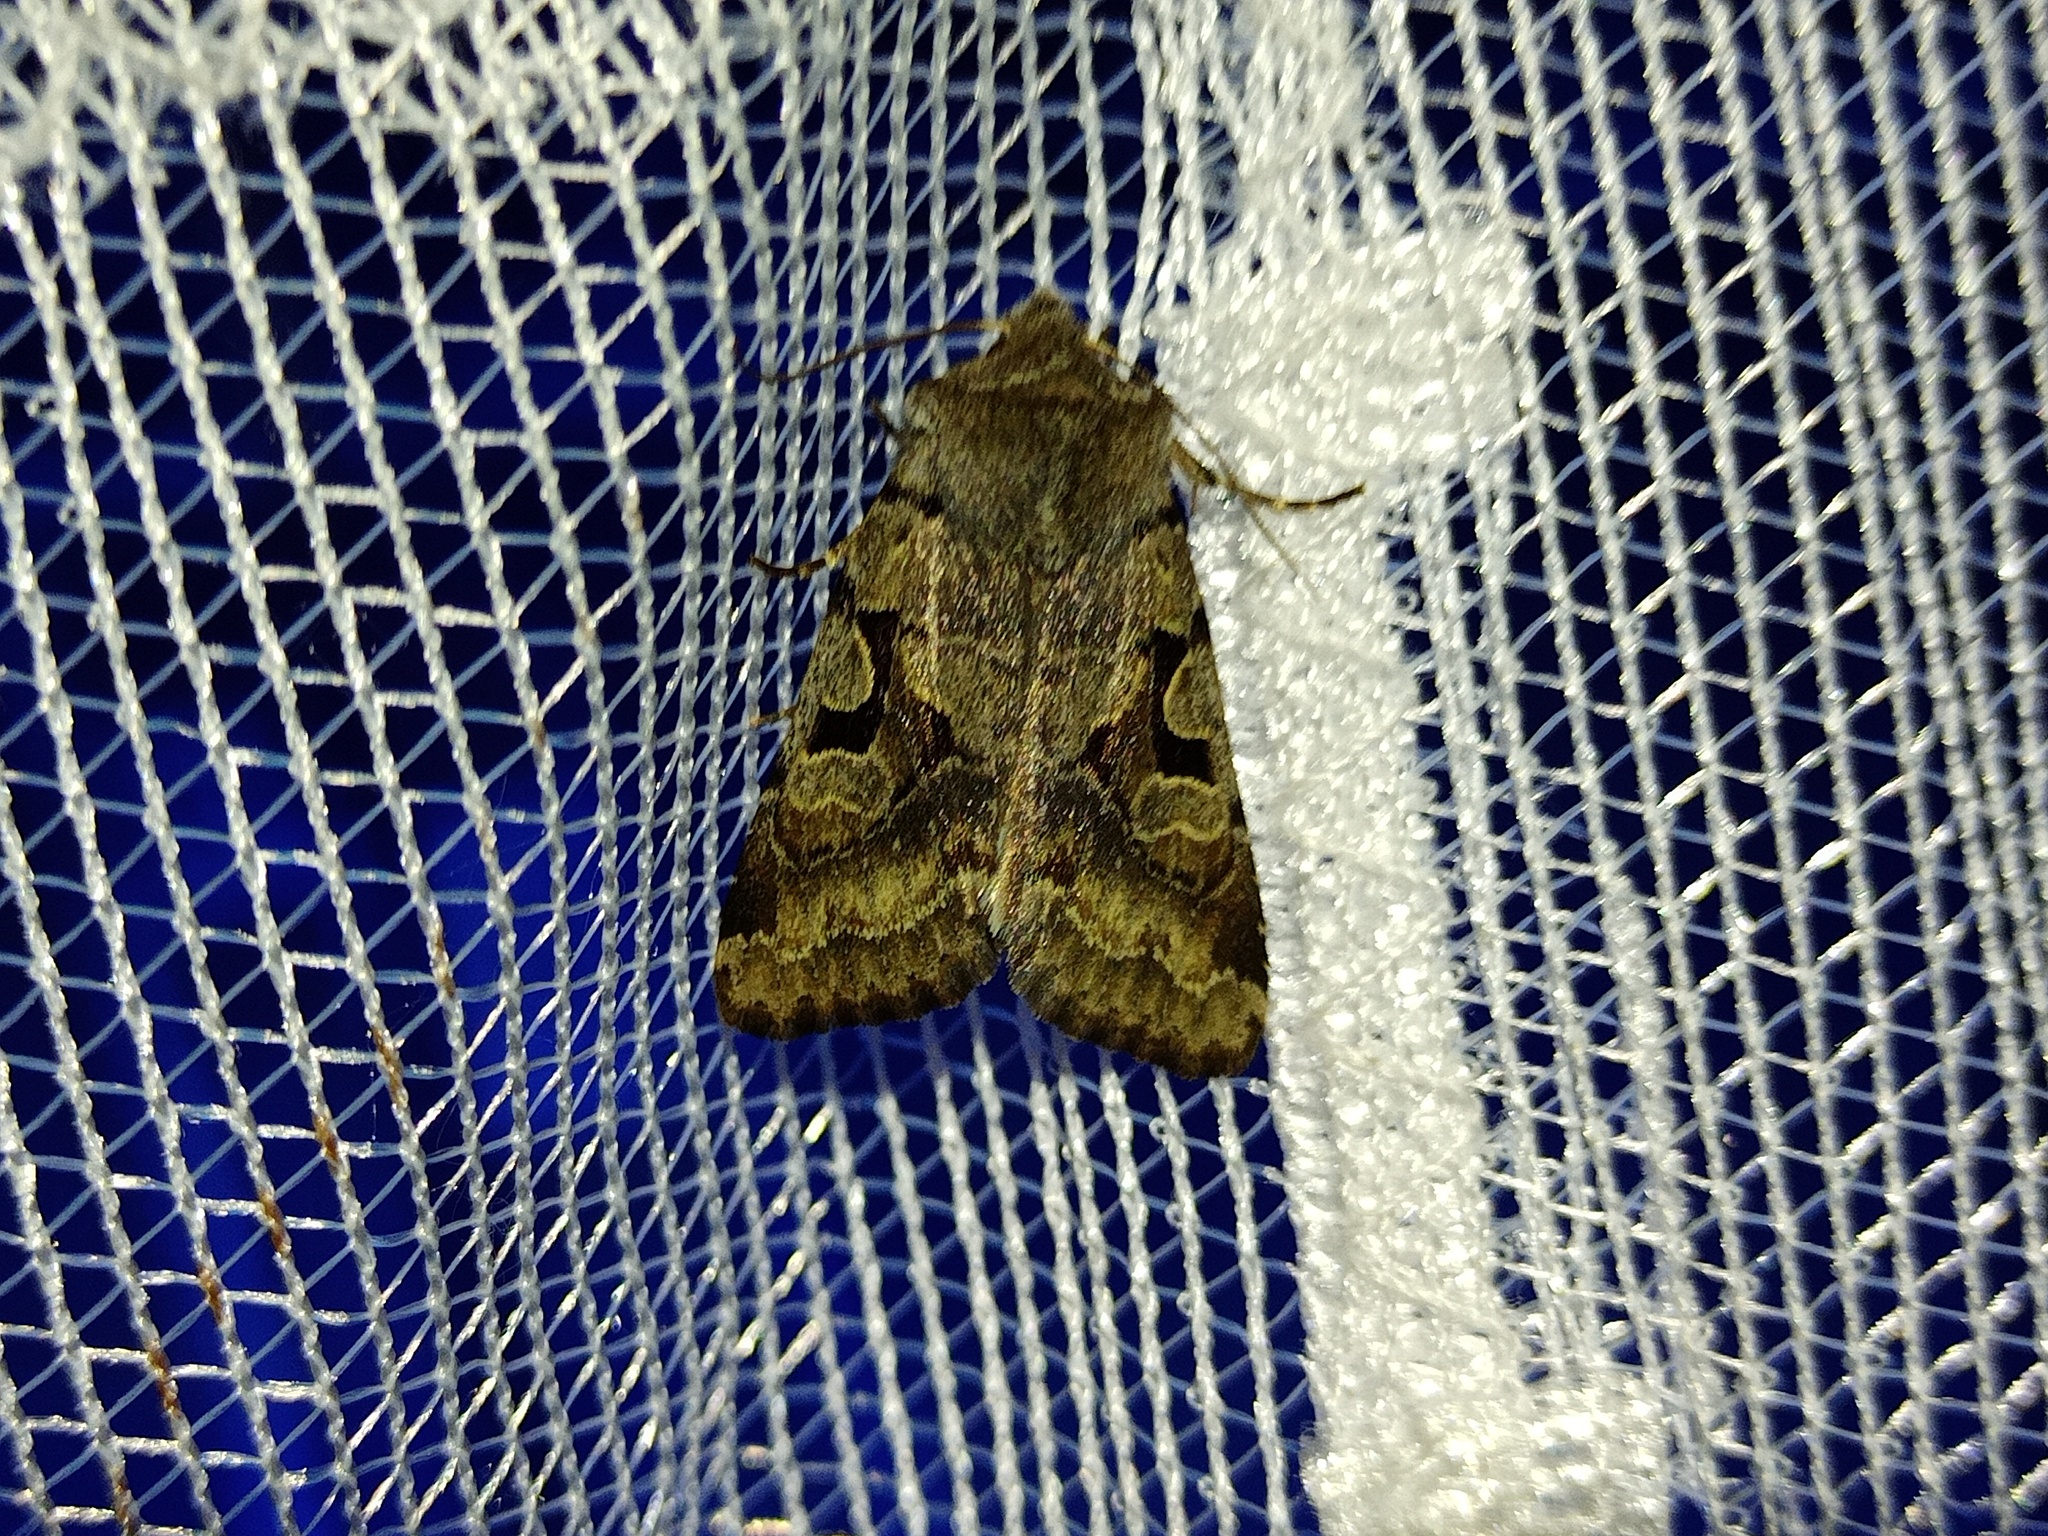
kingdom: Animalia
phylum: Arthropoda
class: Insecta
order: Lepidoptera
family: Noctuidae
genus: Orthosia
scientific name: Orthosia gothica
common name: Hebrew character
